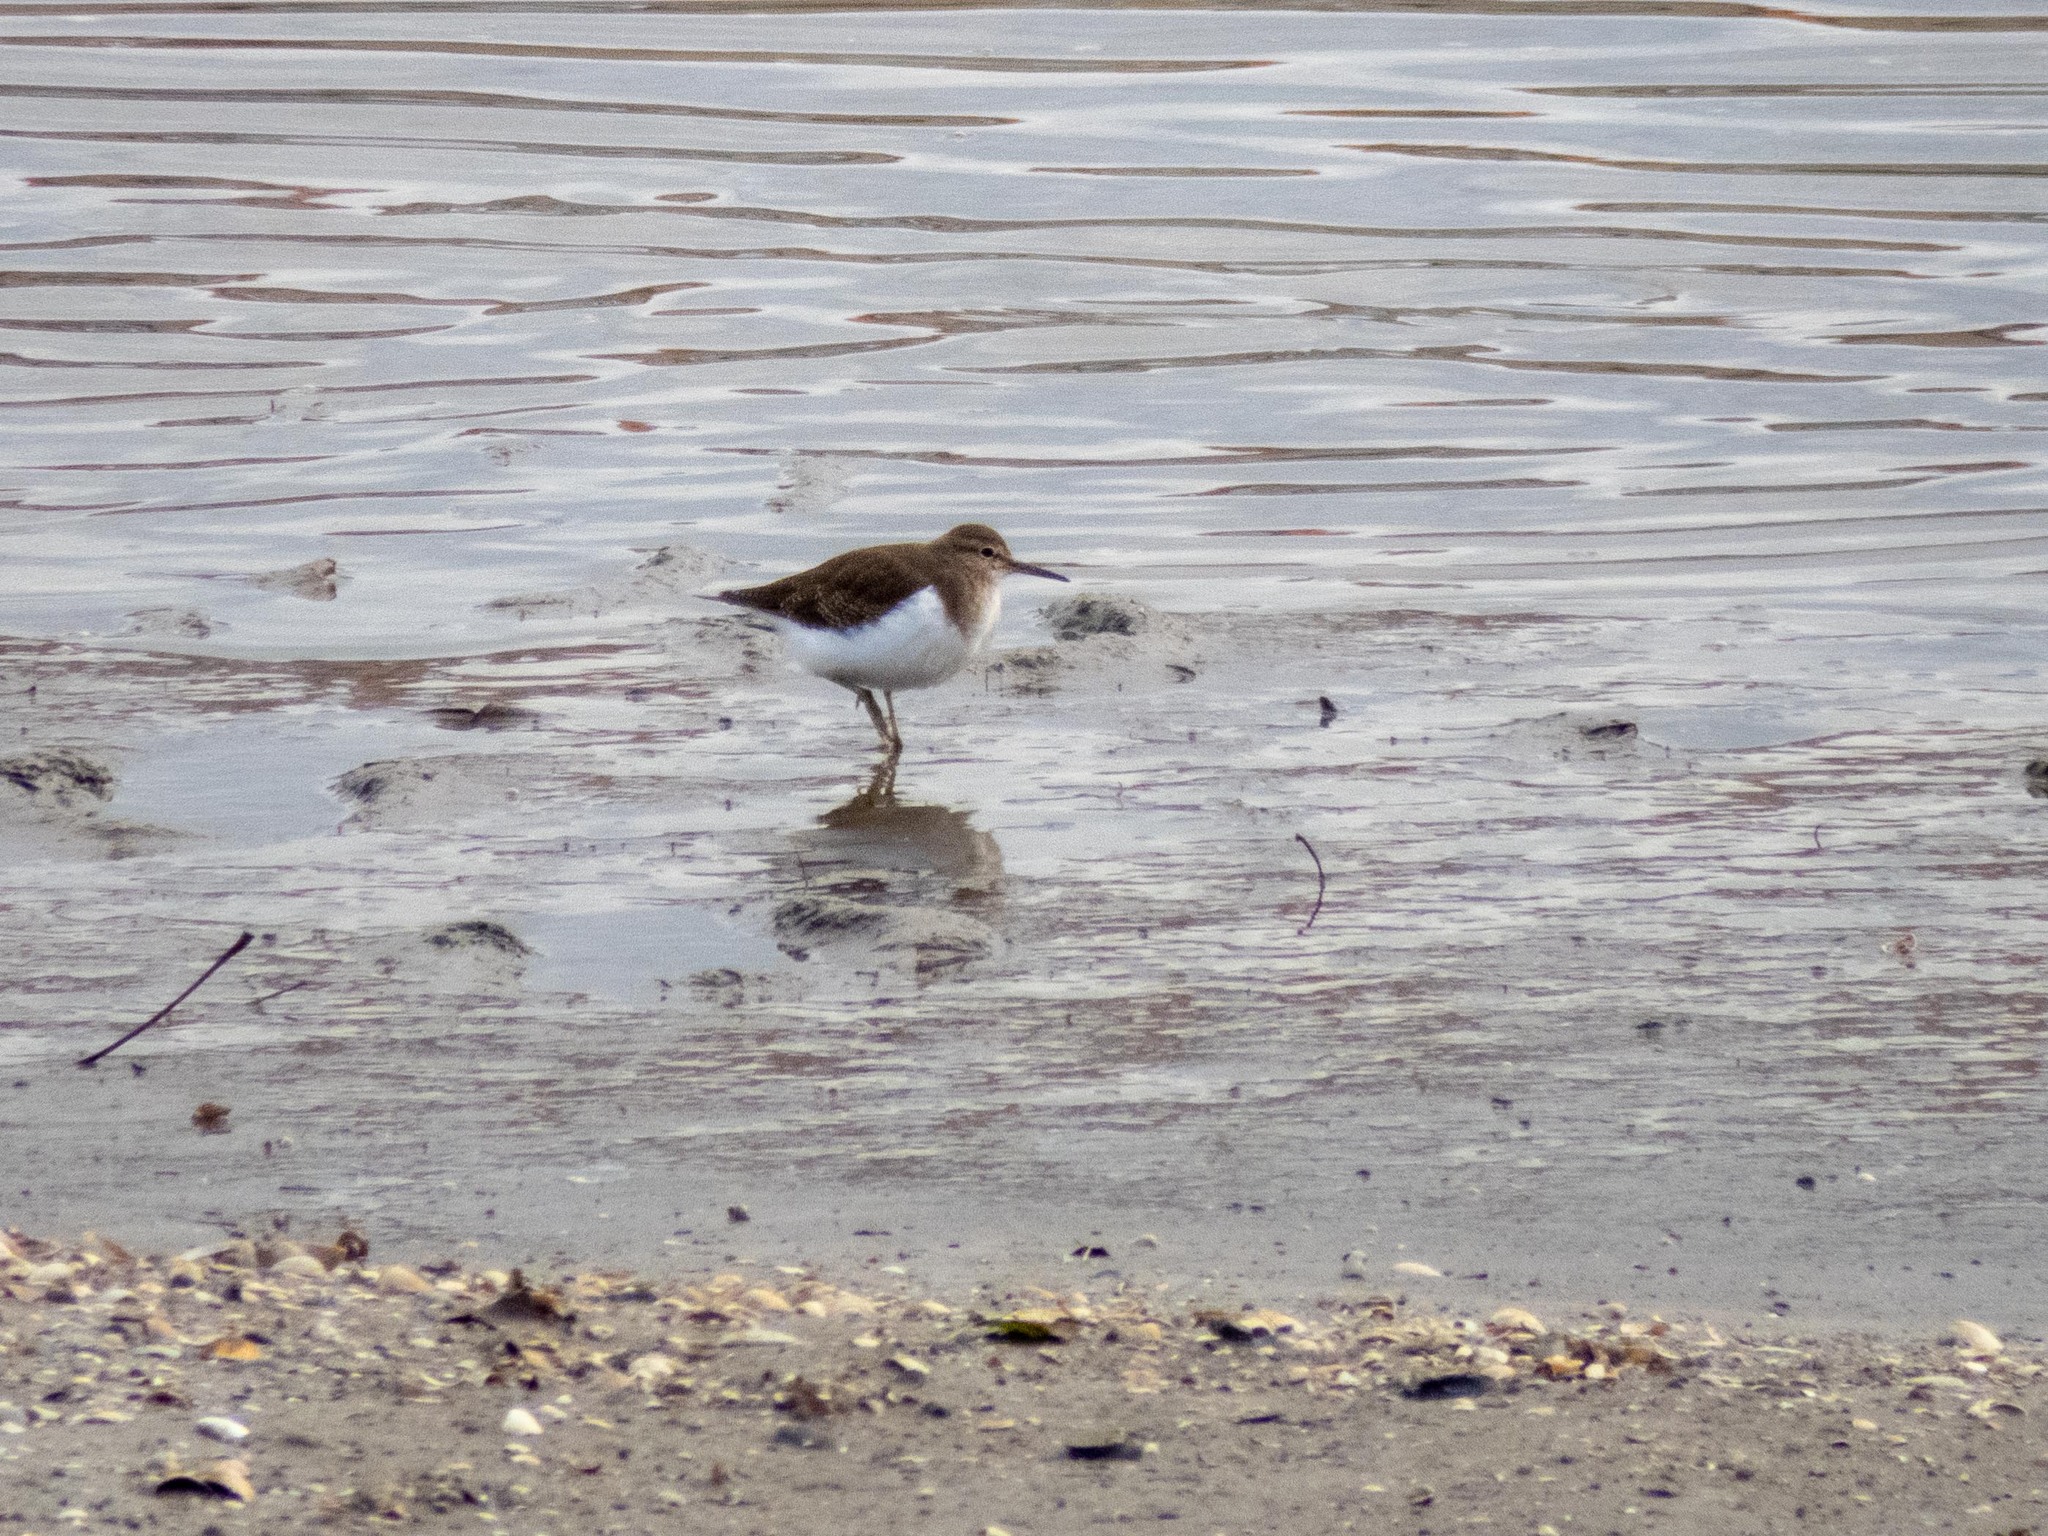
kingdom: Animalia
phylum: Chordata
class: Aves
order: Charadriiformes
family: Scolopacidae
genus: Actitis
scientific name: Actitis hypoleucos
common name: Common sandpiper
